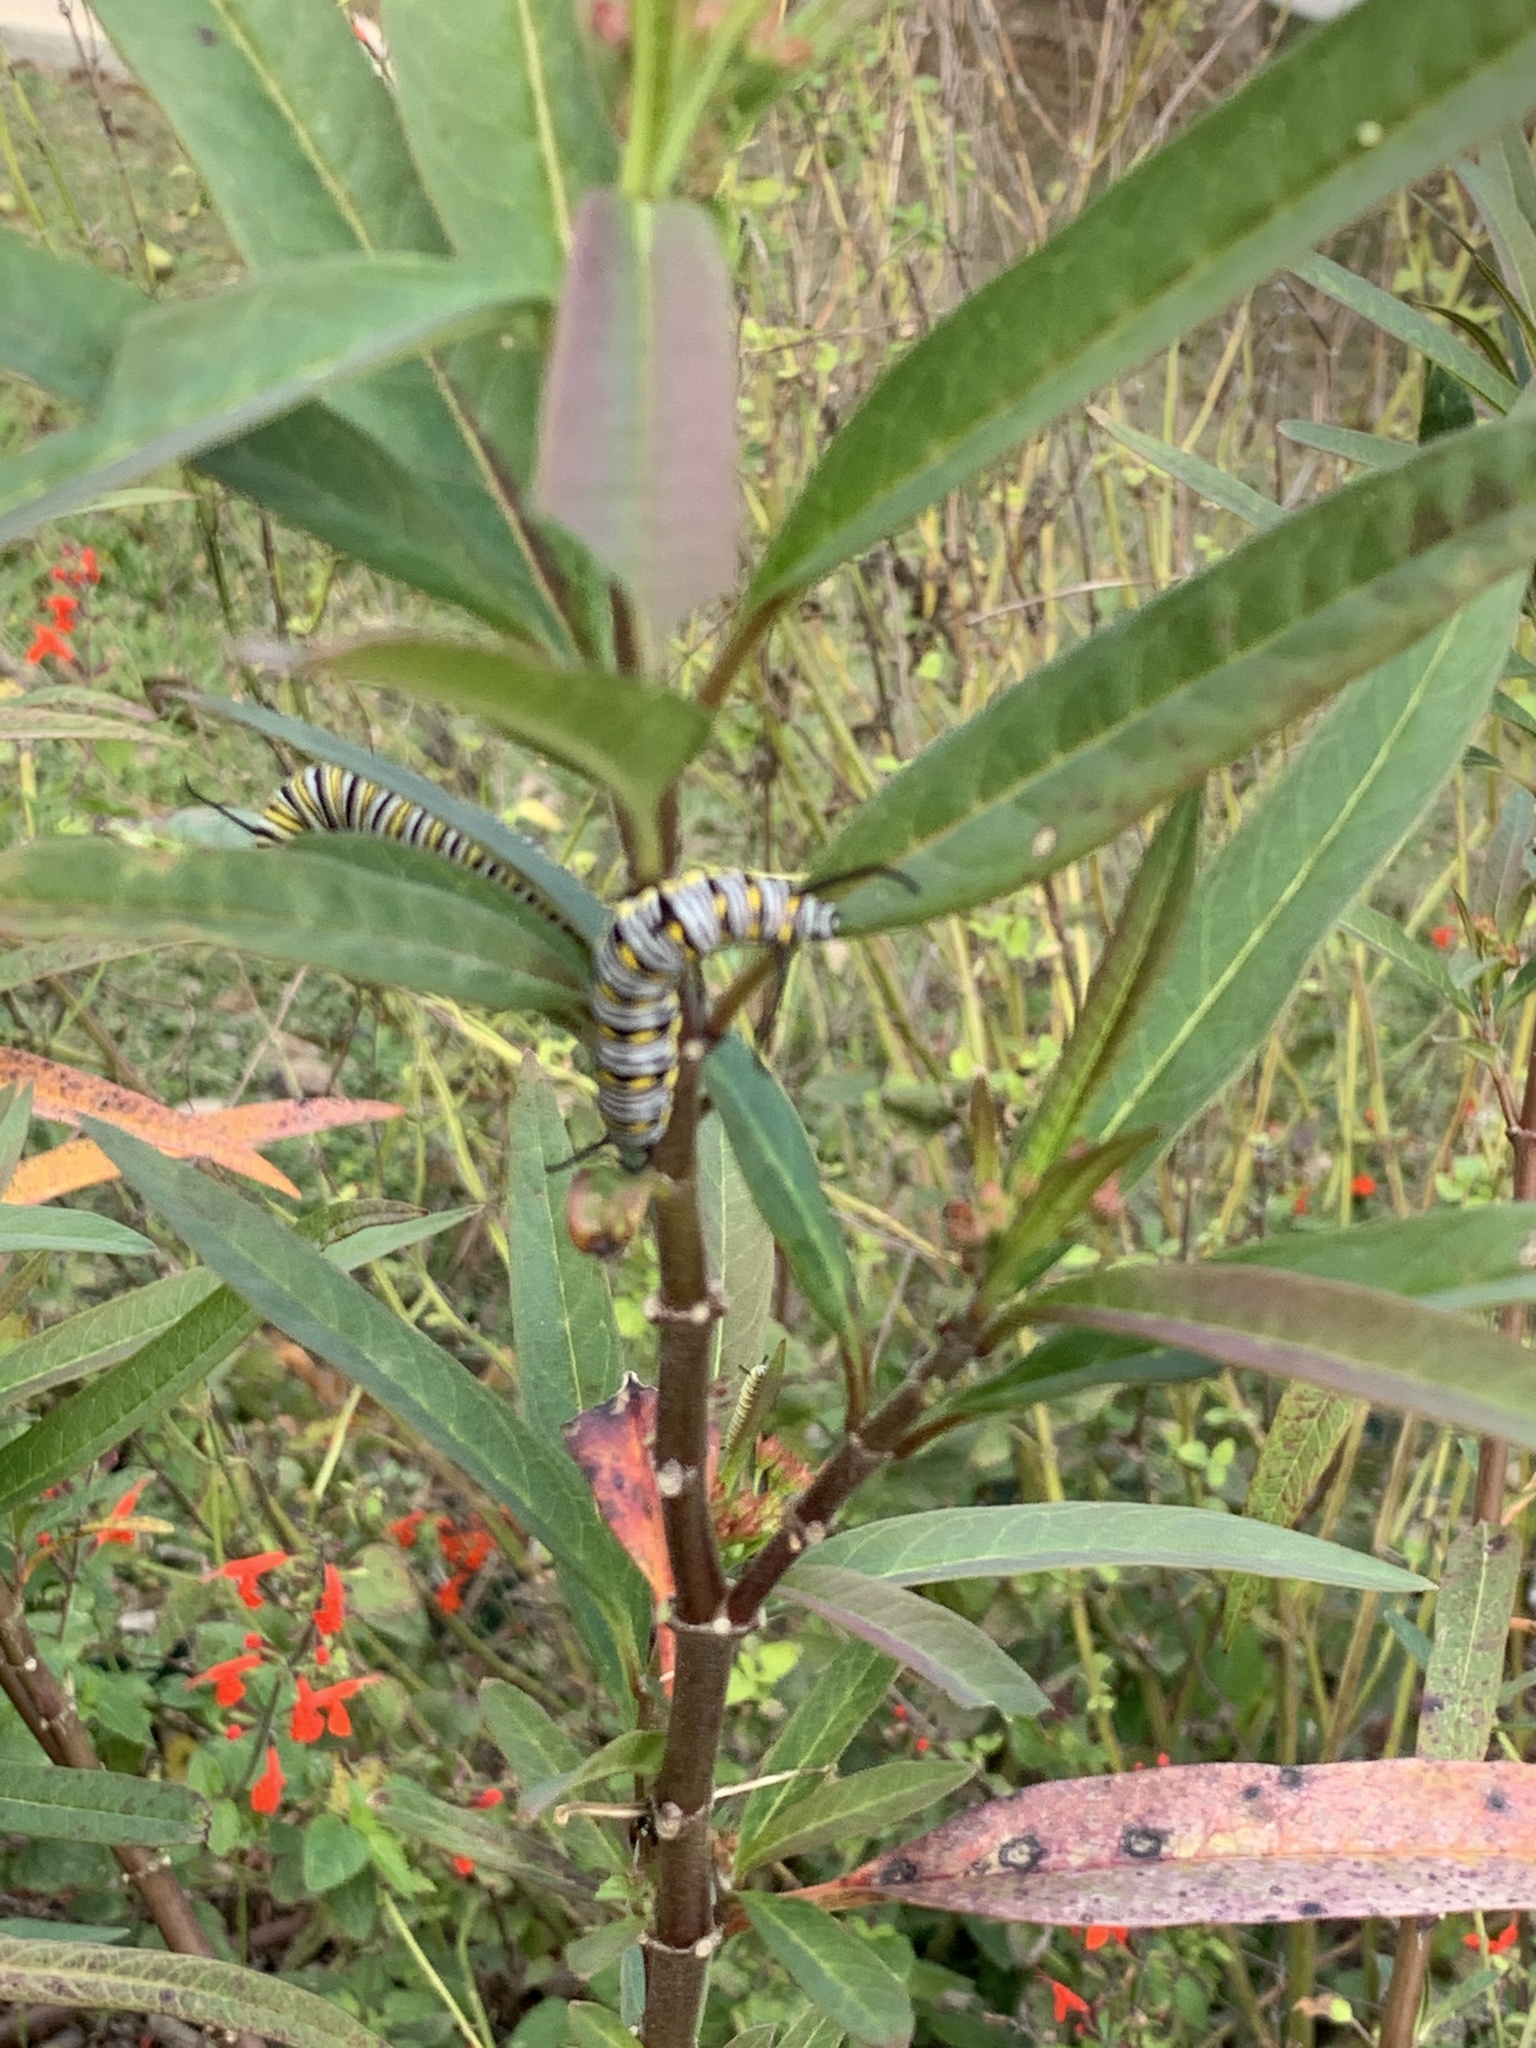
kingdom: Animalia
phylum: Arthropoda
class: Insecta
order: Lepidoptera
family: Nymphalidae
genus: Danaus
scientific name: Danaus plexippus
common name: Monarch
